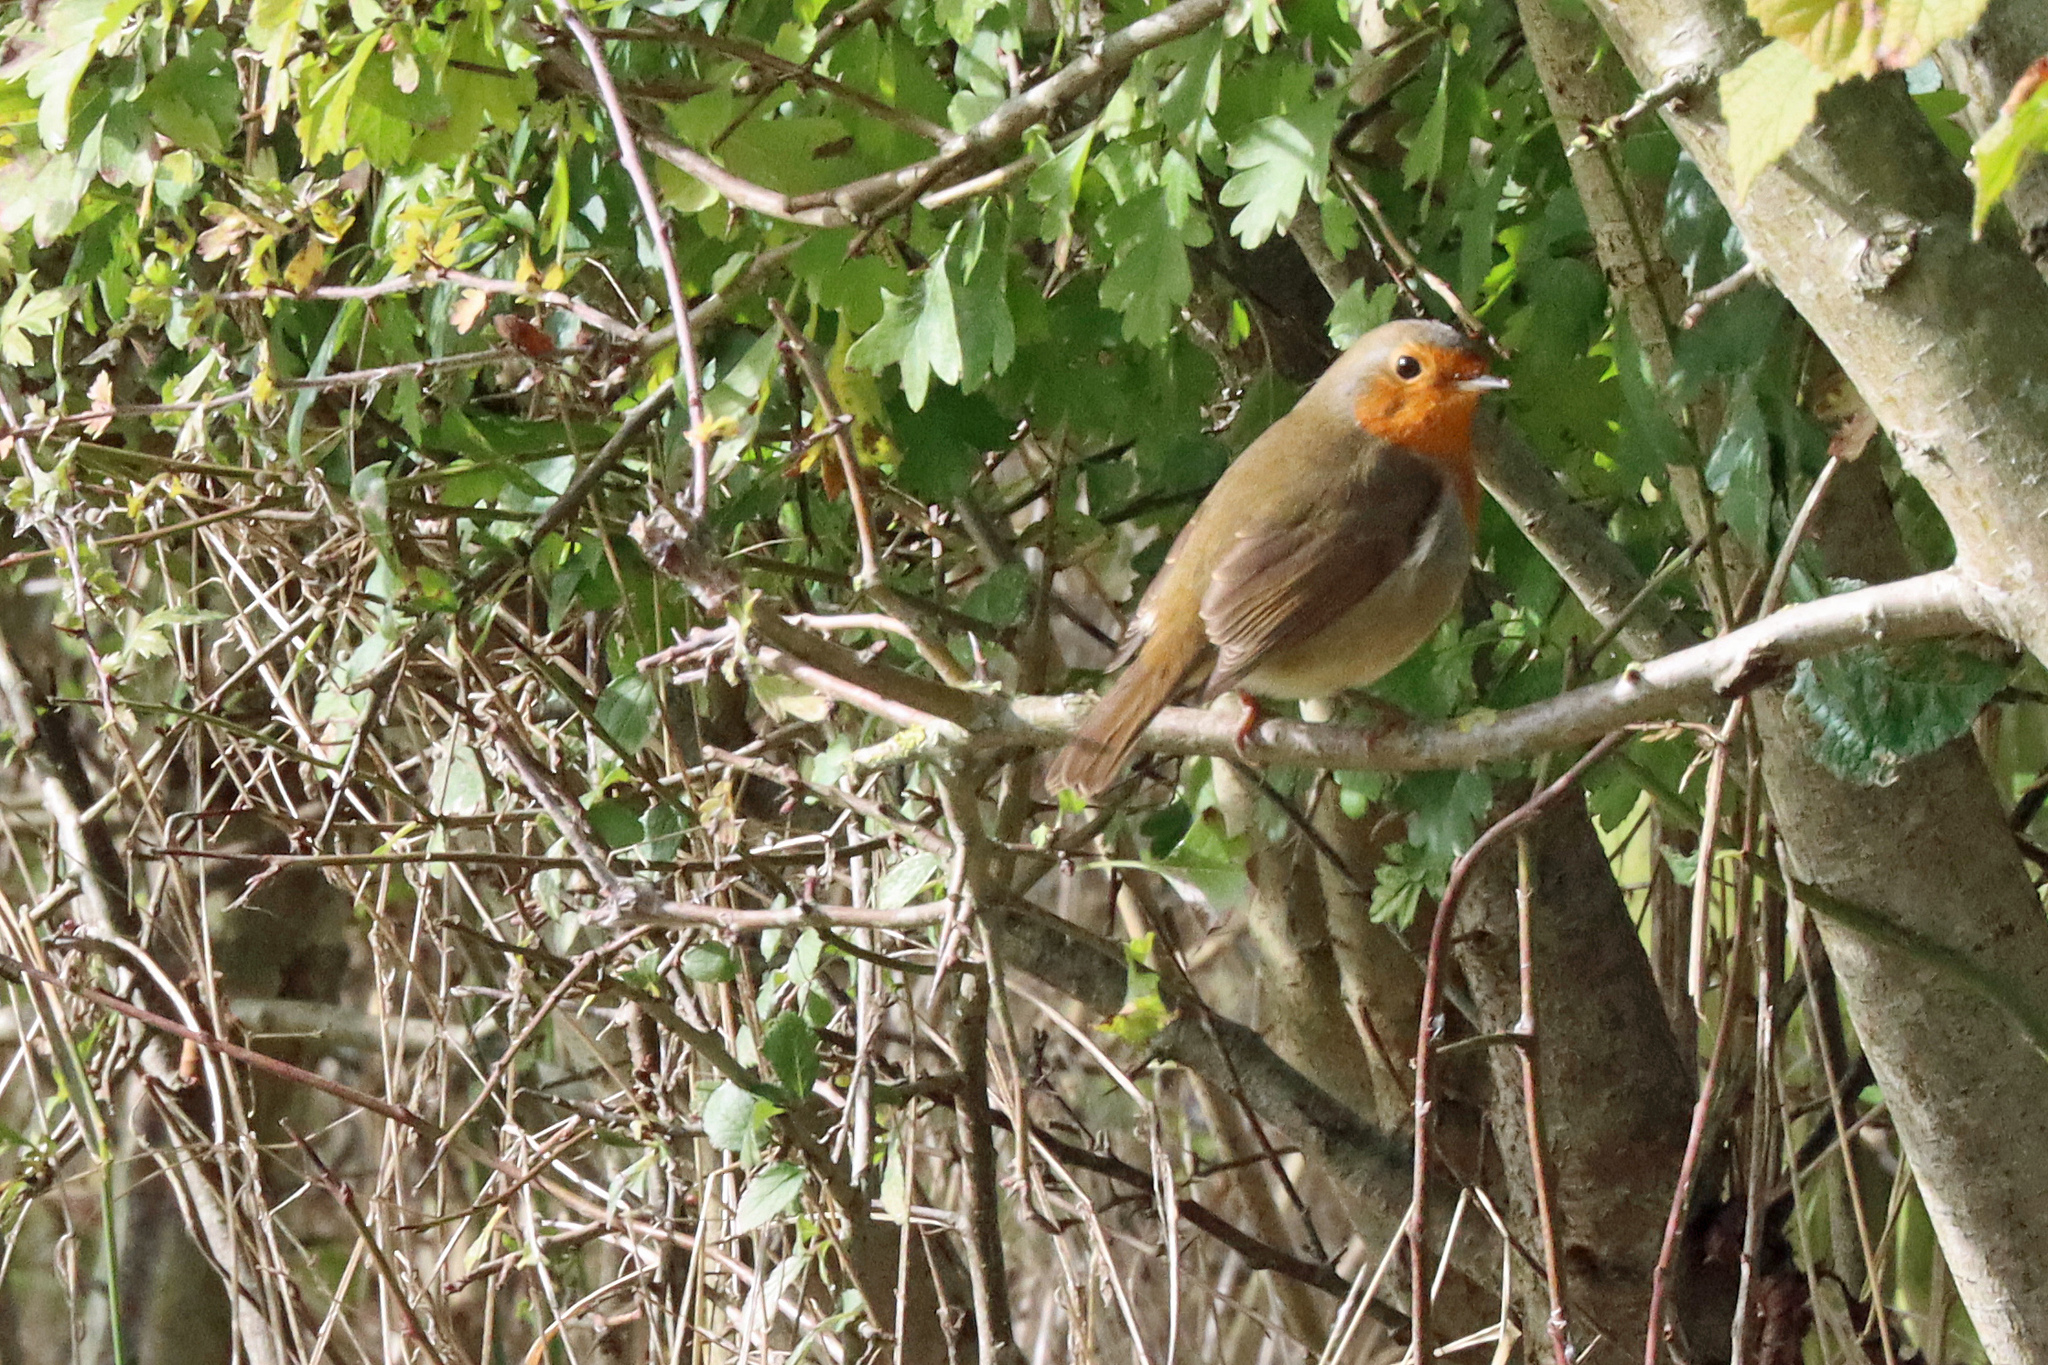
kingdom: Animalia
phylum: Chordata
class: Aves
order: Passeriformes
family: Muscicapidae
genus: Erithacus
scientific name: Erithacus rubecula
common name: European robin
